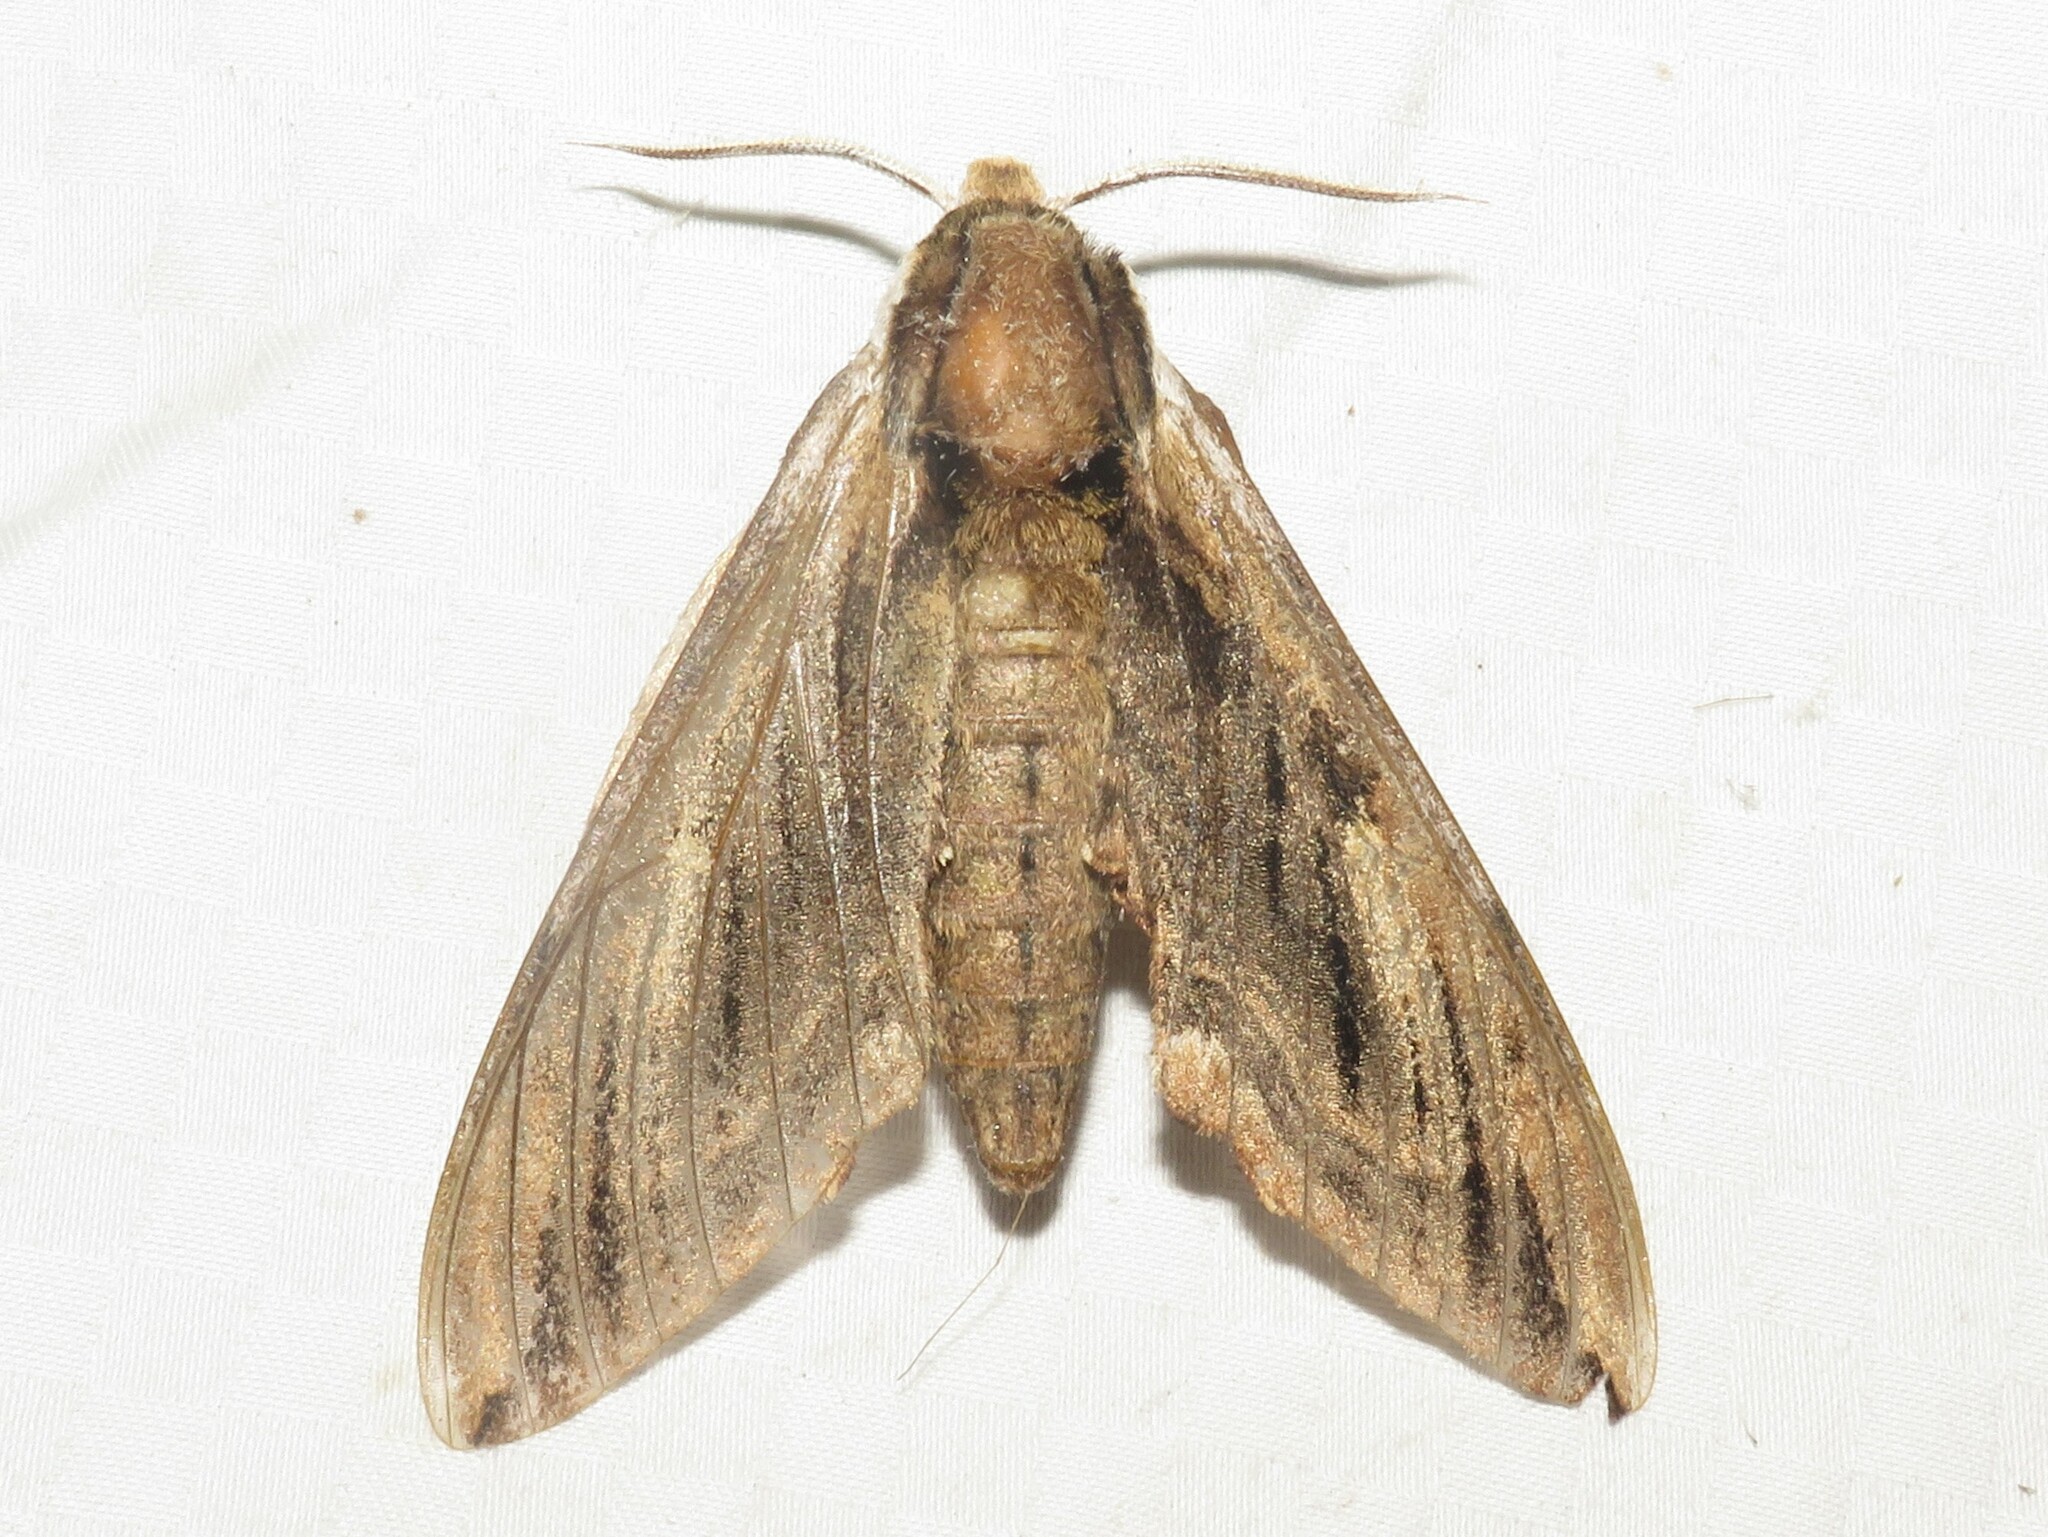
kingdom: Animalia
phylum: Arthropoda
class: Insecta
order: Lepidoptera
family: Sphingidae
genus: Ceratomia
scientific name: Ceratomia amyntor
